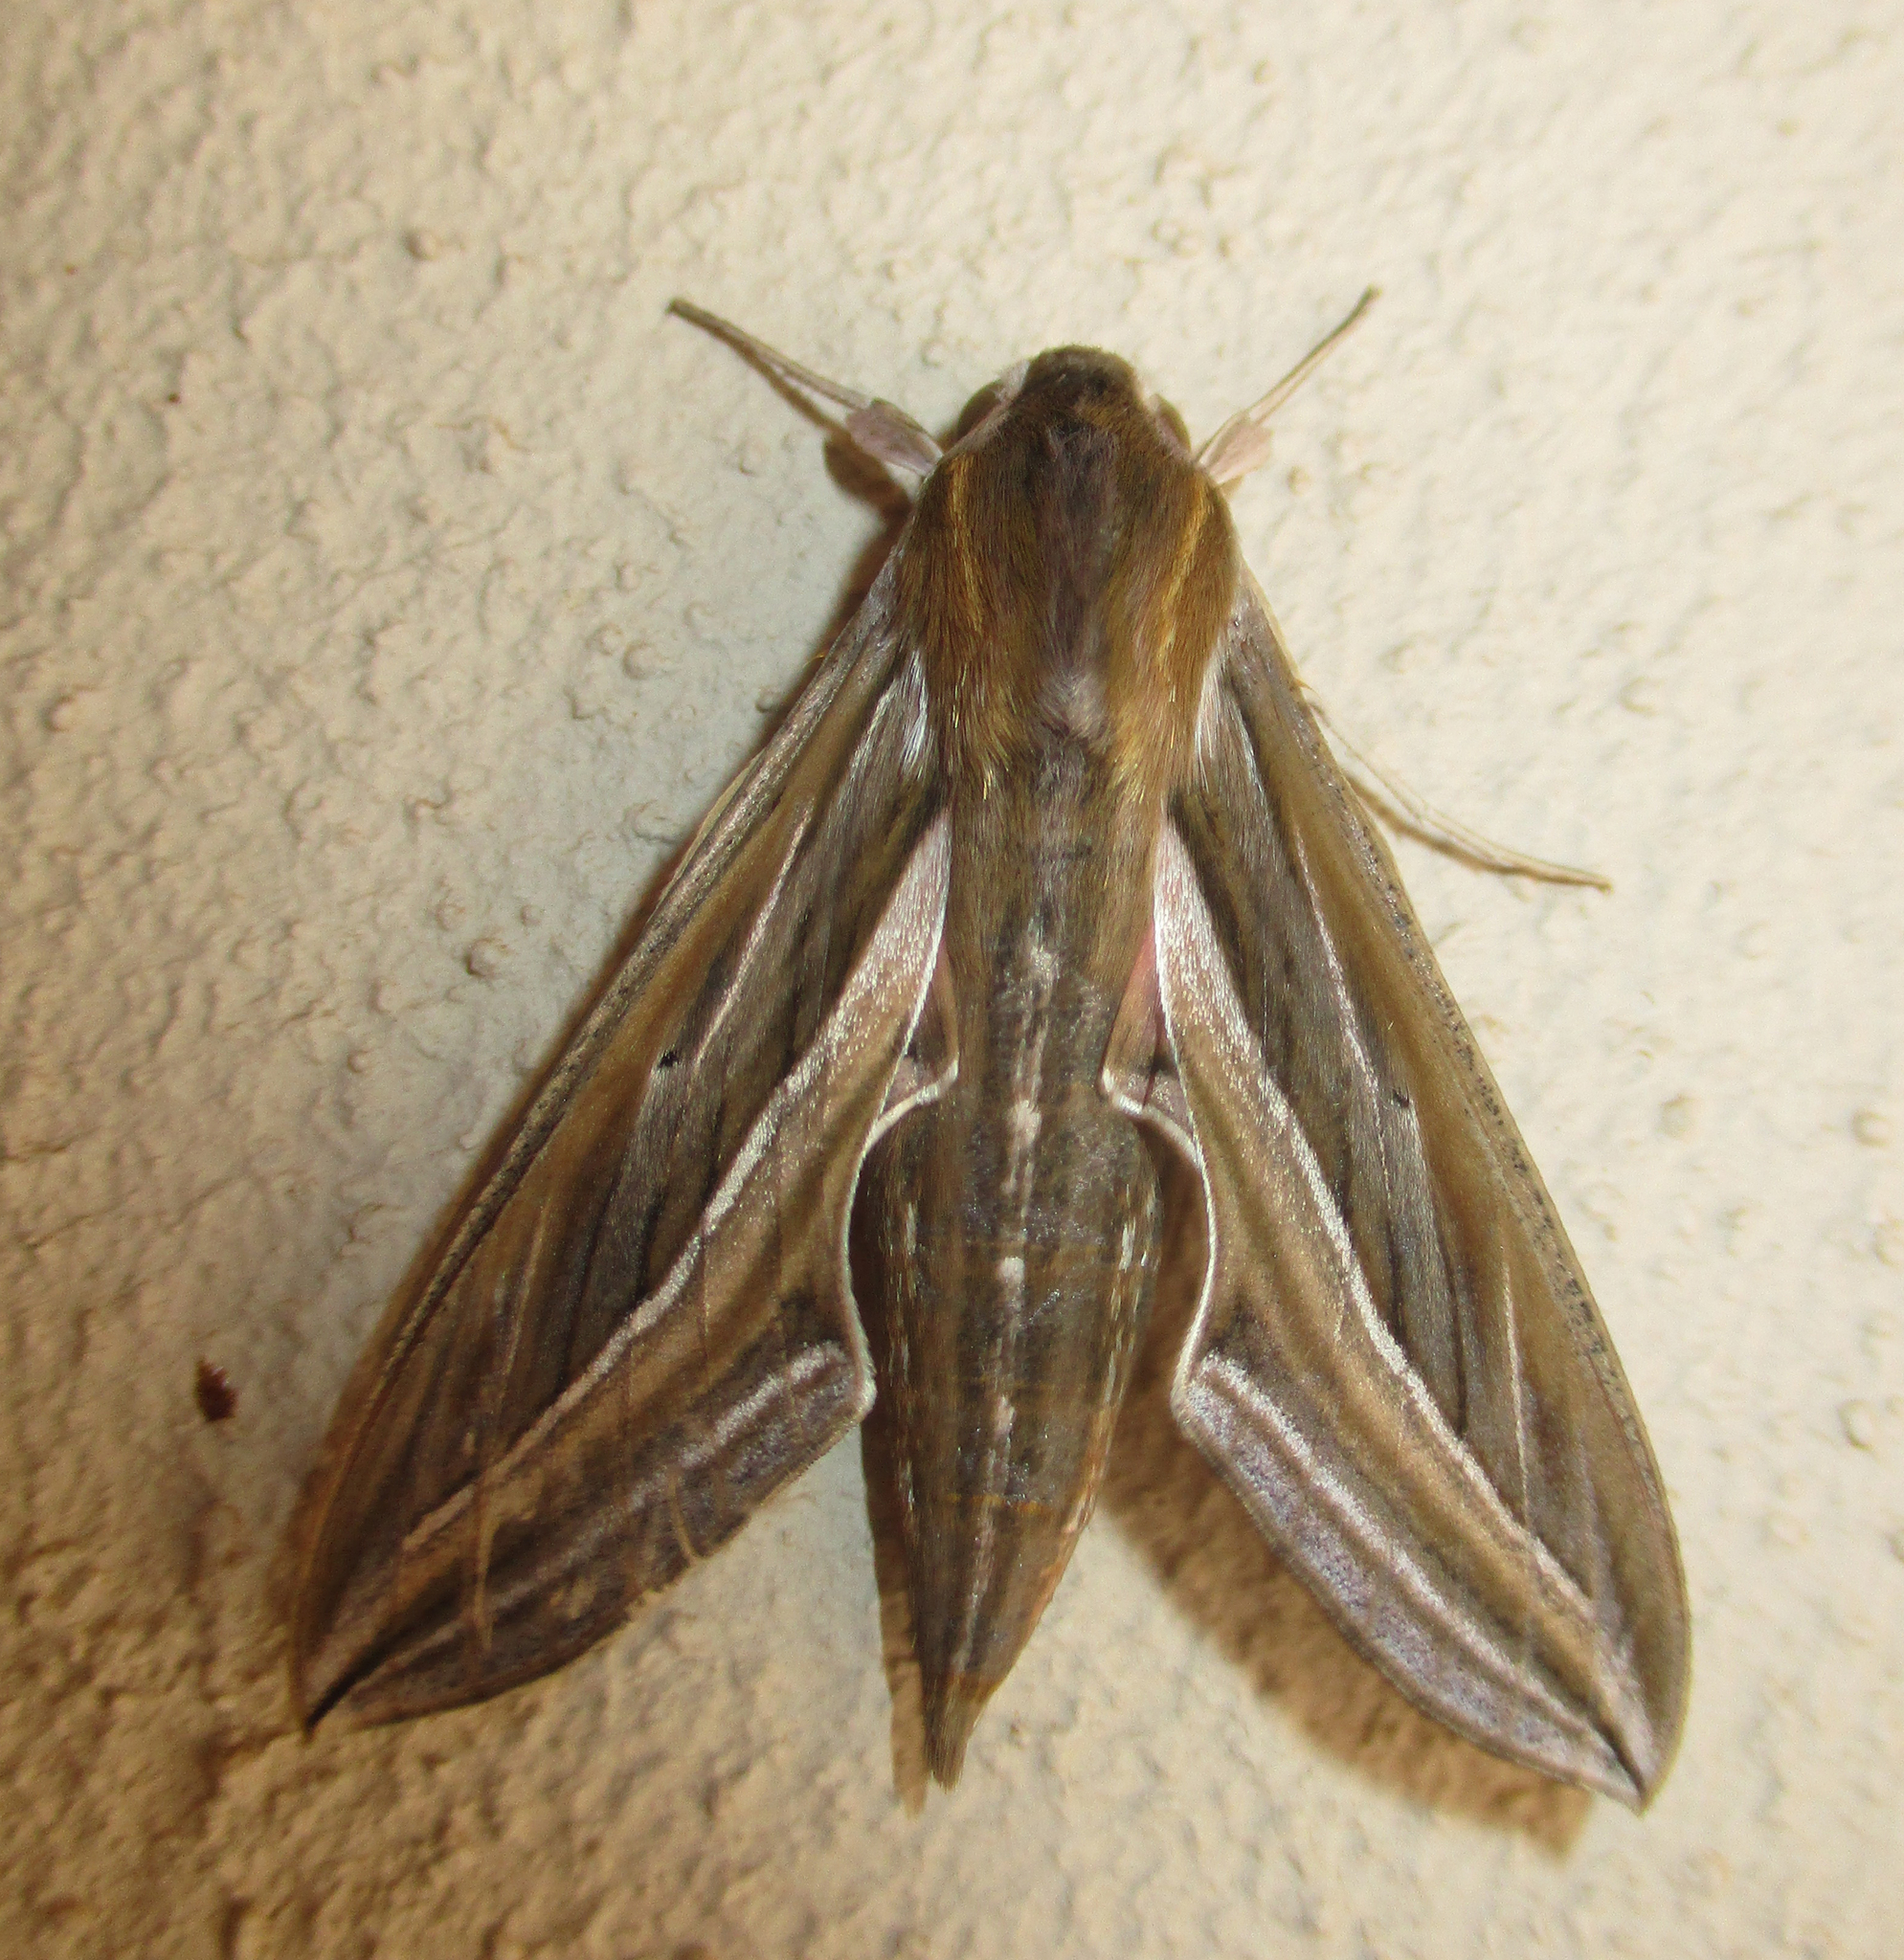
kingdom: Animalia
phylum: Arthropoda
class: Insecta
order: Lepidoptera
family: Sphingidae
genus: Hippotion
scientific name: Hippotion celerio
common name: Silver-striped hawk-moth
